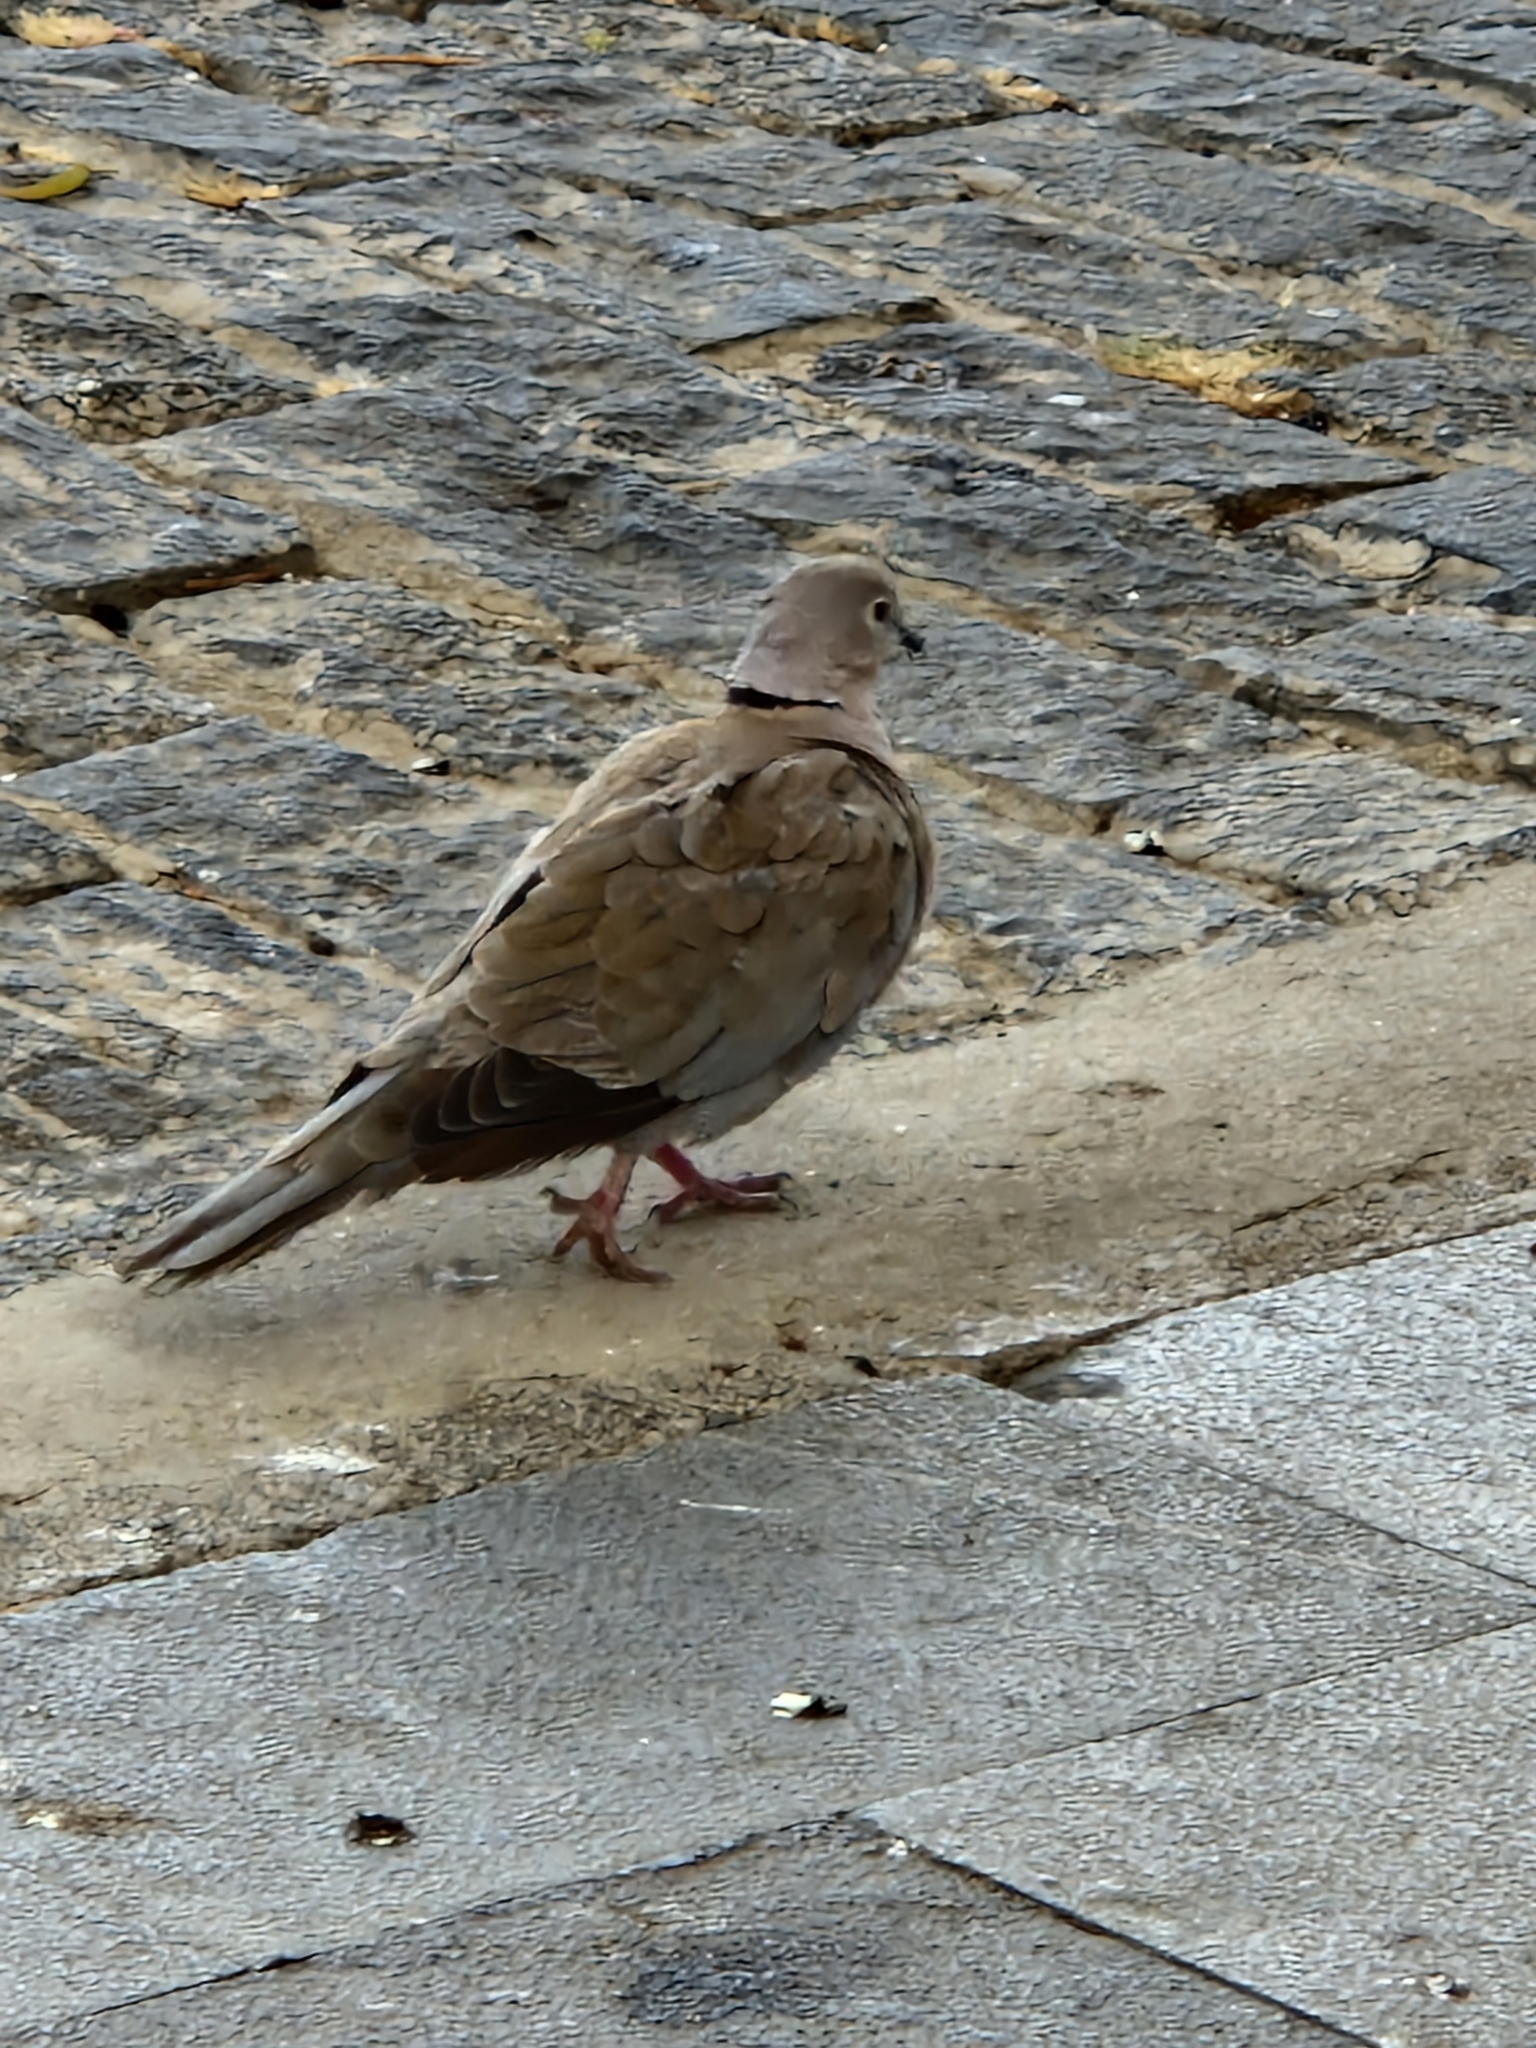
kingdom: Animalia
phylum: Chordata
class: Aves
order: Columbiformes
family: Columbidae
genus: Streptopelia
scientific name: Streptopelia decaocto
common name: Eurasian collared dove
